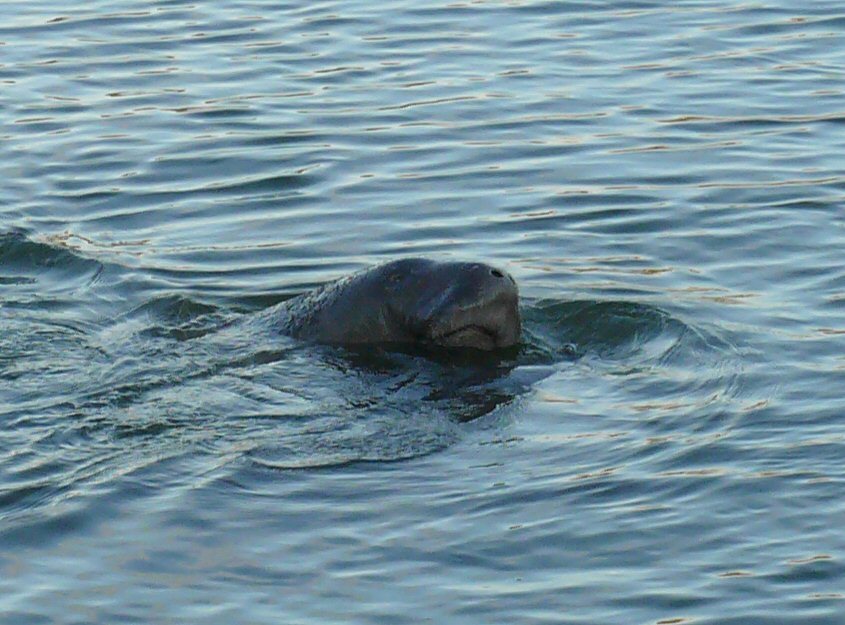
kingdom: Animalia
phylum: Chordata
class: Mammalia
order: Sirenia
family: Trichechidae
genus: Trichechus
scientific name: Trichechus manatus
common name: West indian manatee
